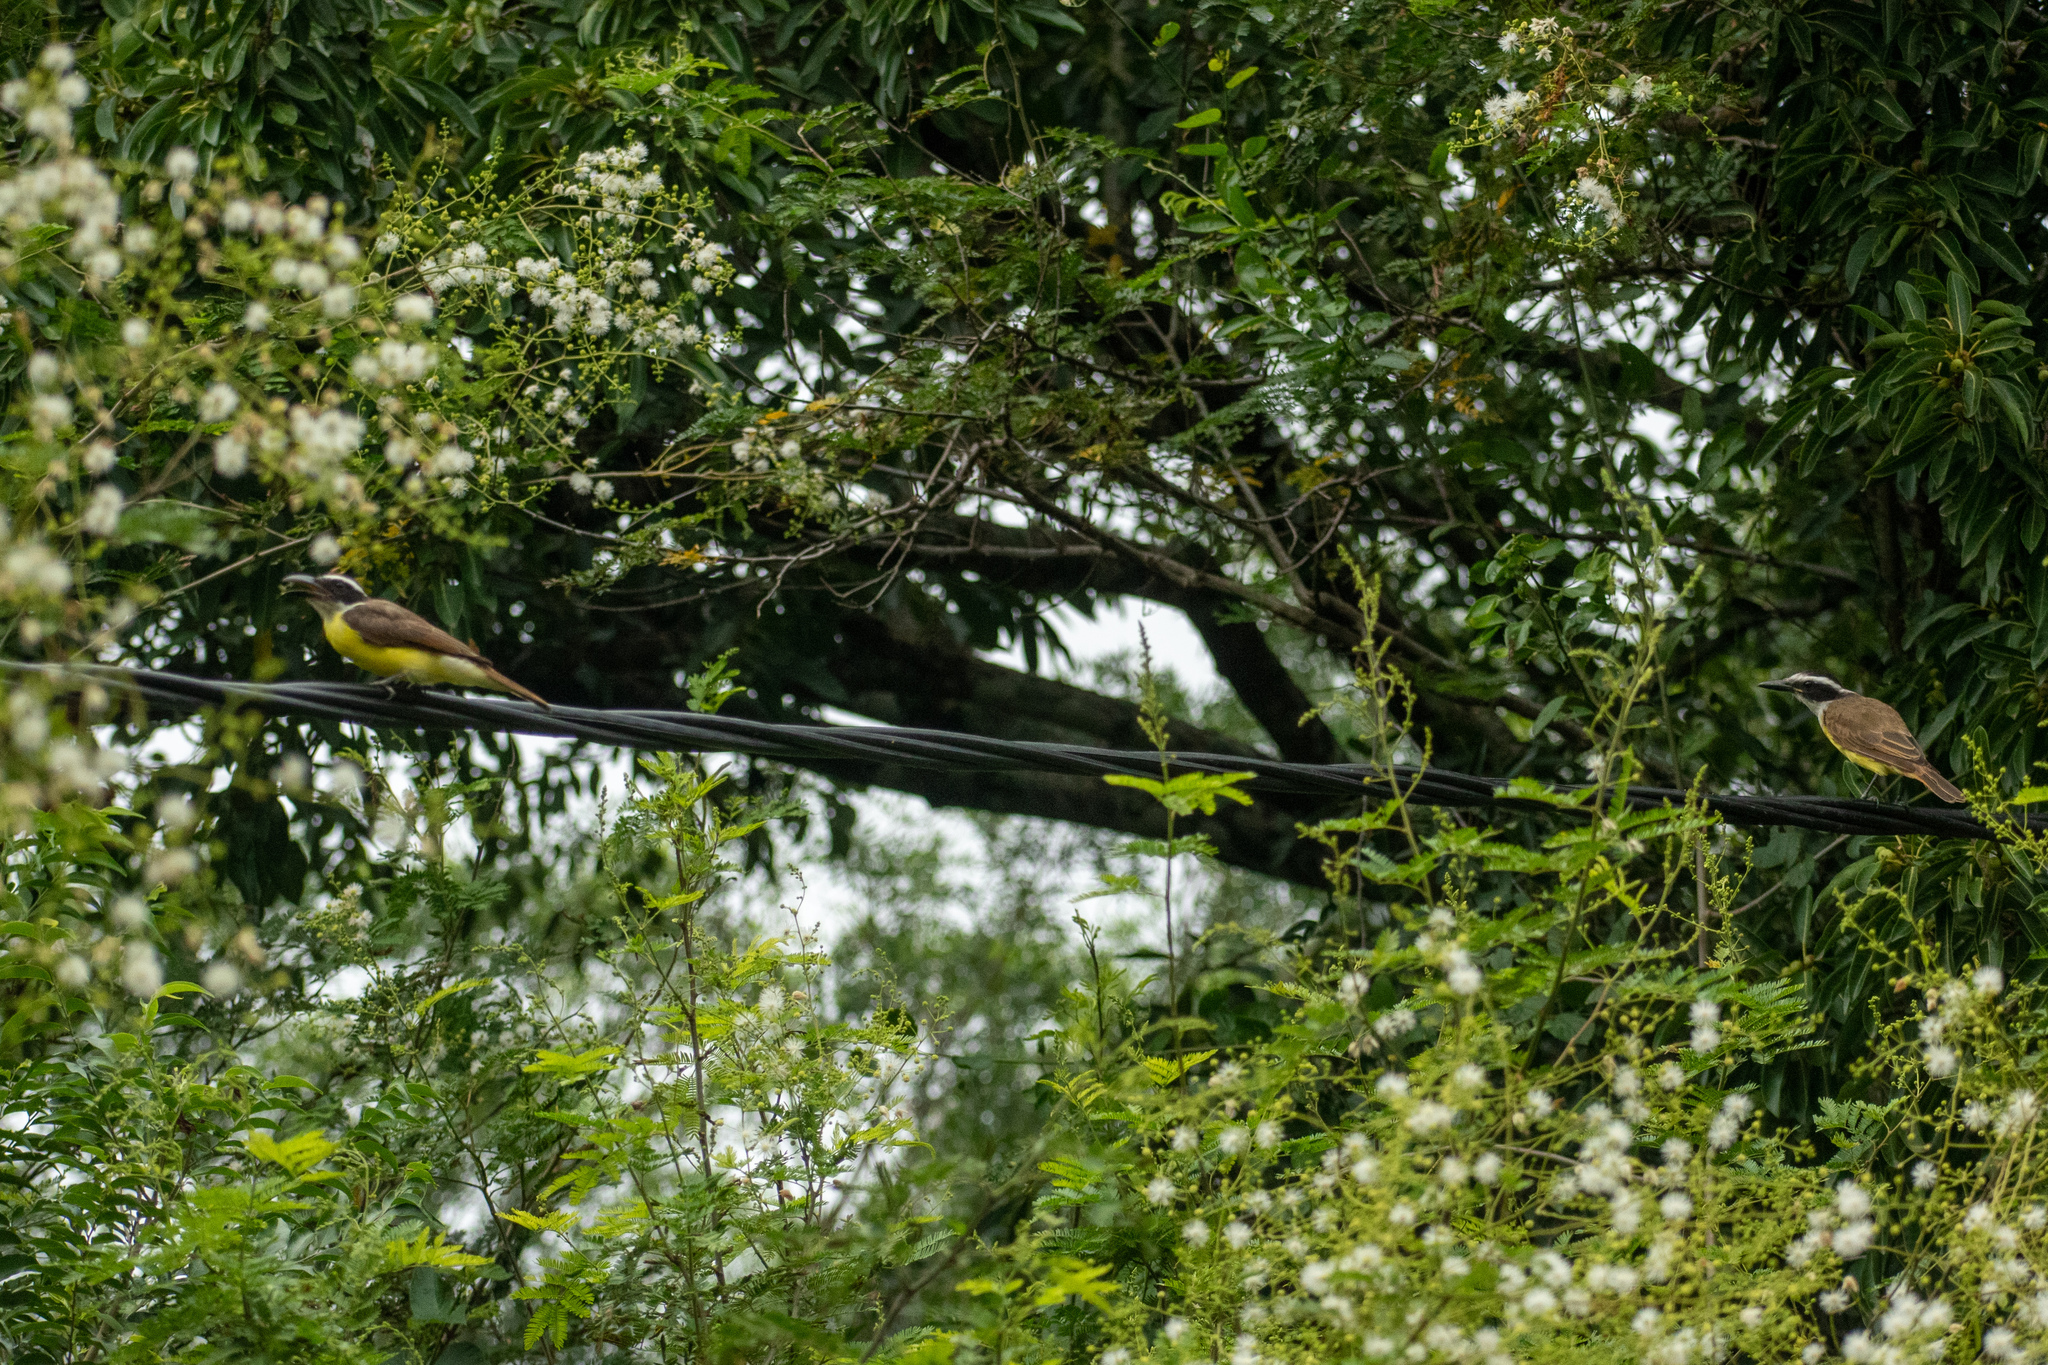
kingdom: Animalia
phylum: Chordata
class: Aves
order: Passeriformes
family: Tyrannidae
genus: Megarynchus
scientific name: Megarynchus pitangua
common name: Boat-billed flycatcher
